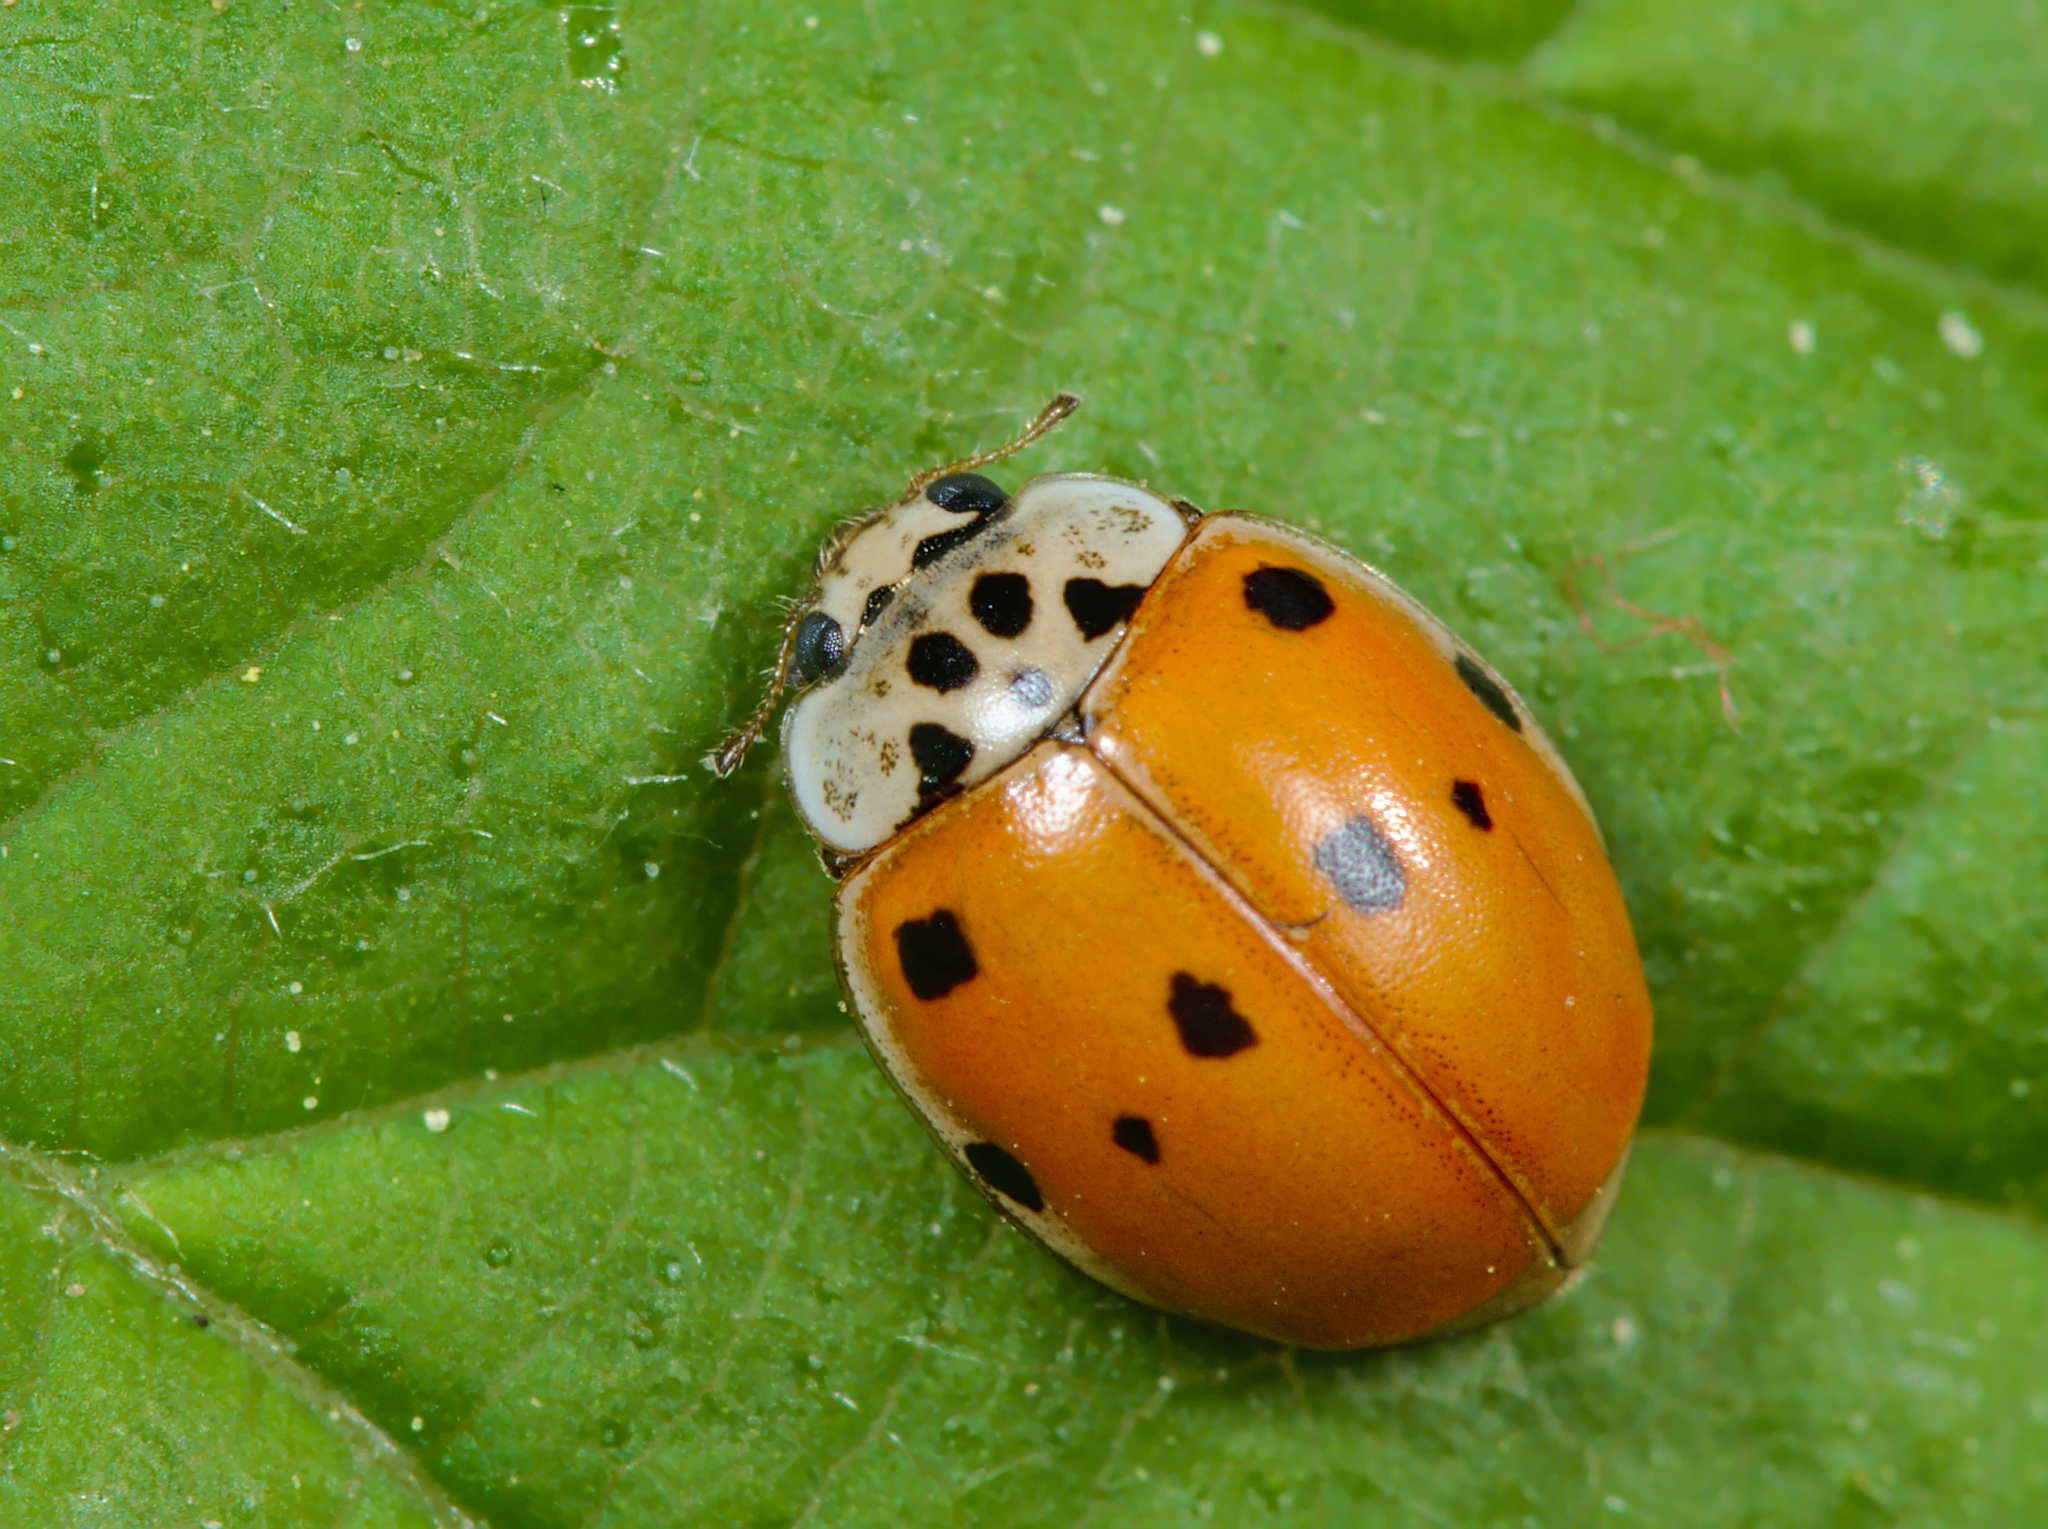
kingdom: Animalia
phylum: Arthropoda
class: Insecta
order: Coleoptera
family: Coccinellidae
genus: Adalia
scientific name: Adalia decempunctata
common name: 10-spot ladybird
